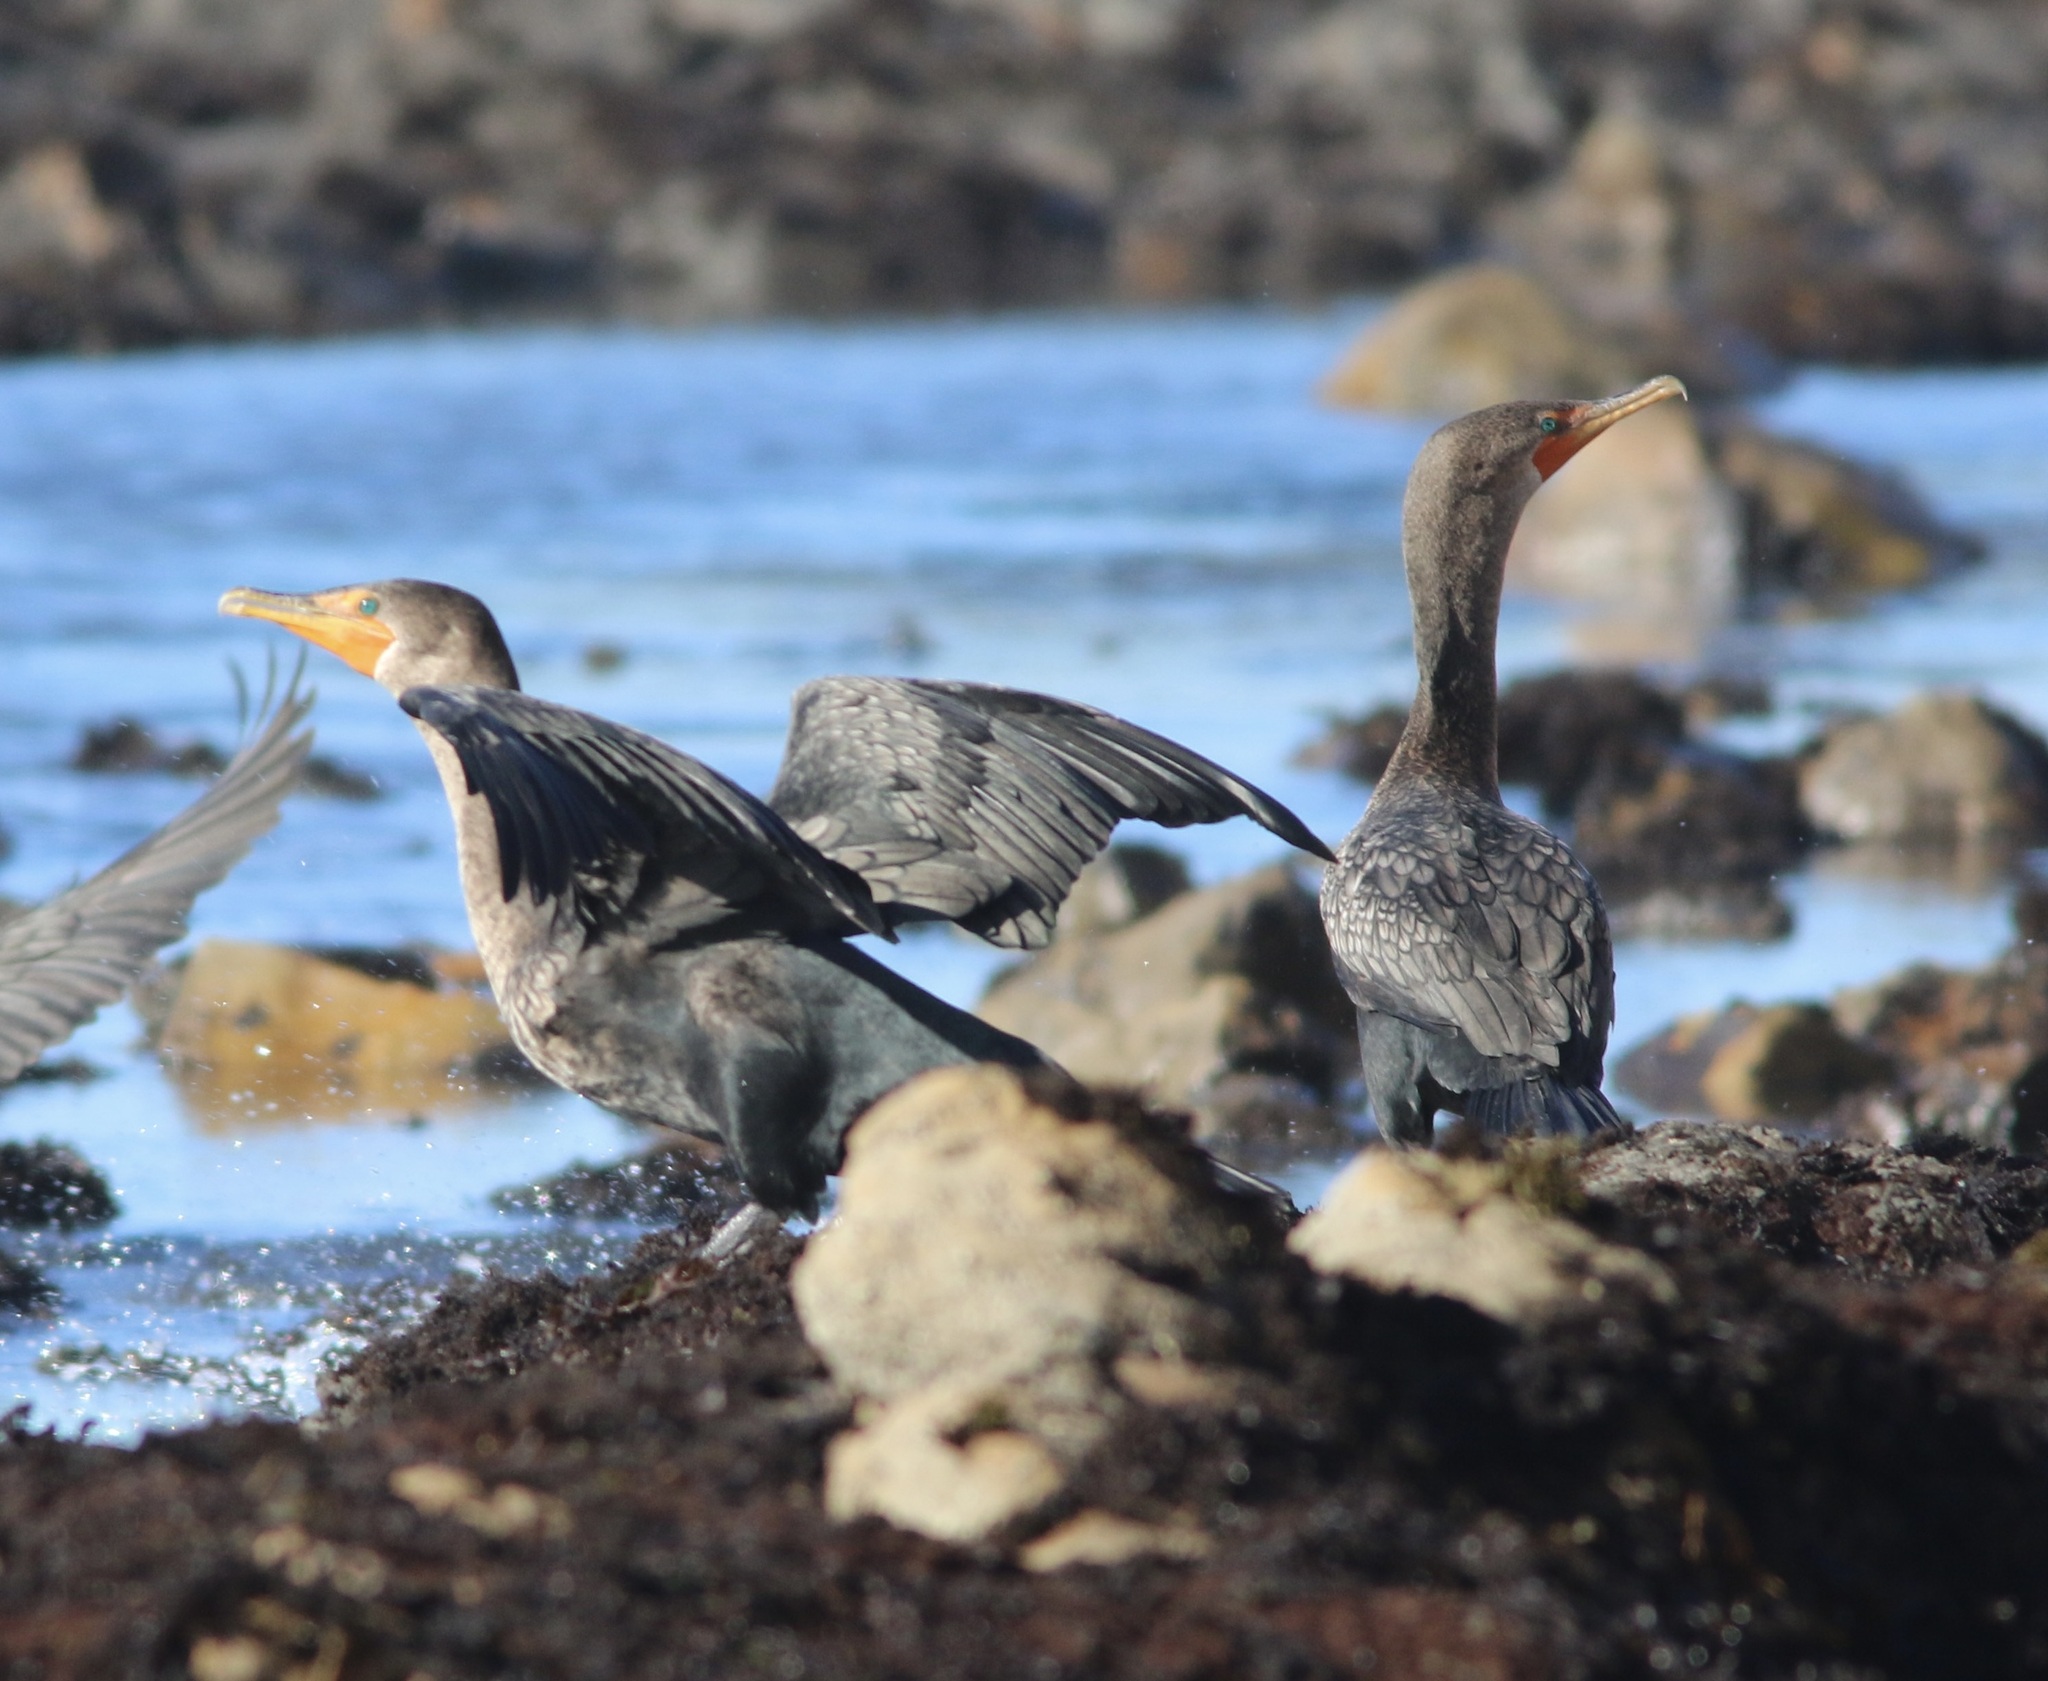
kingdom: Animalia
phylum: Chordata
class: Aves
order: Suliformes
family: Phalacrocoracidae
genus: Phalacrocorax
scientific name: Phalacrocorax auritus
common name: Double-crested cormorant
